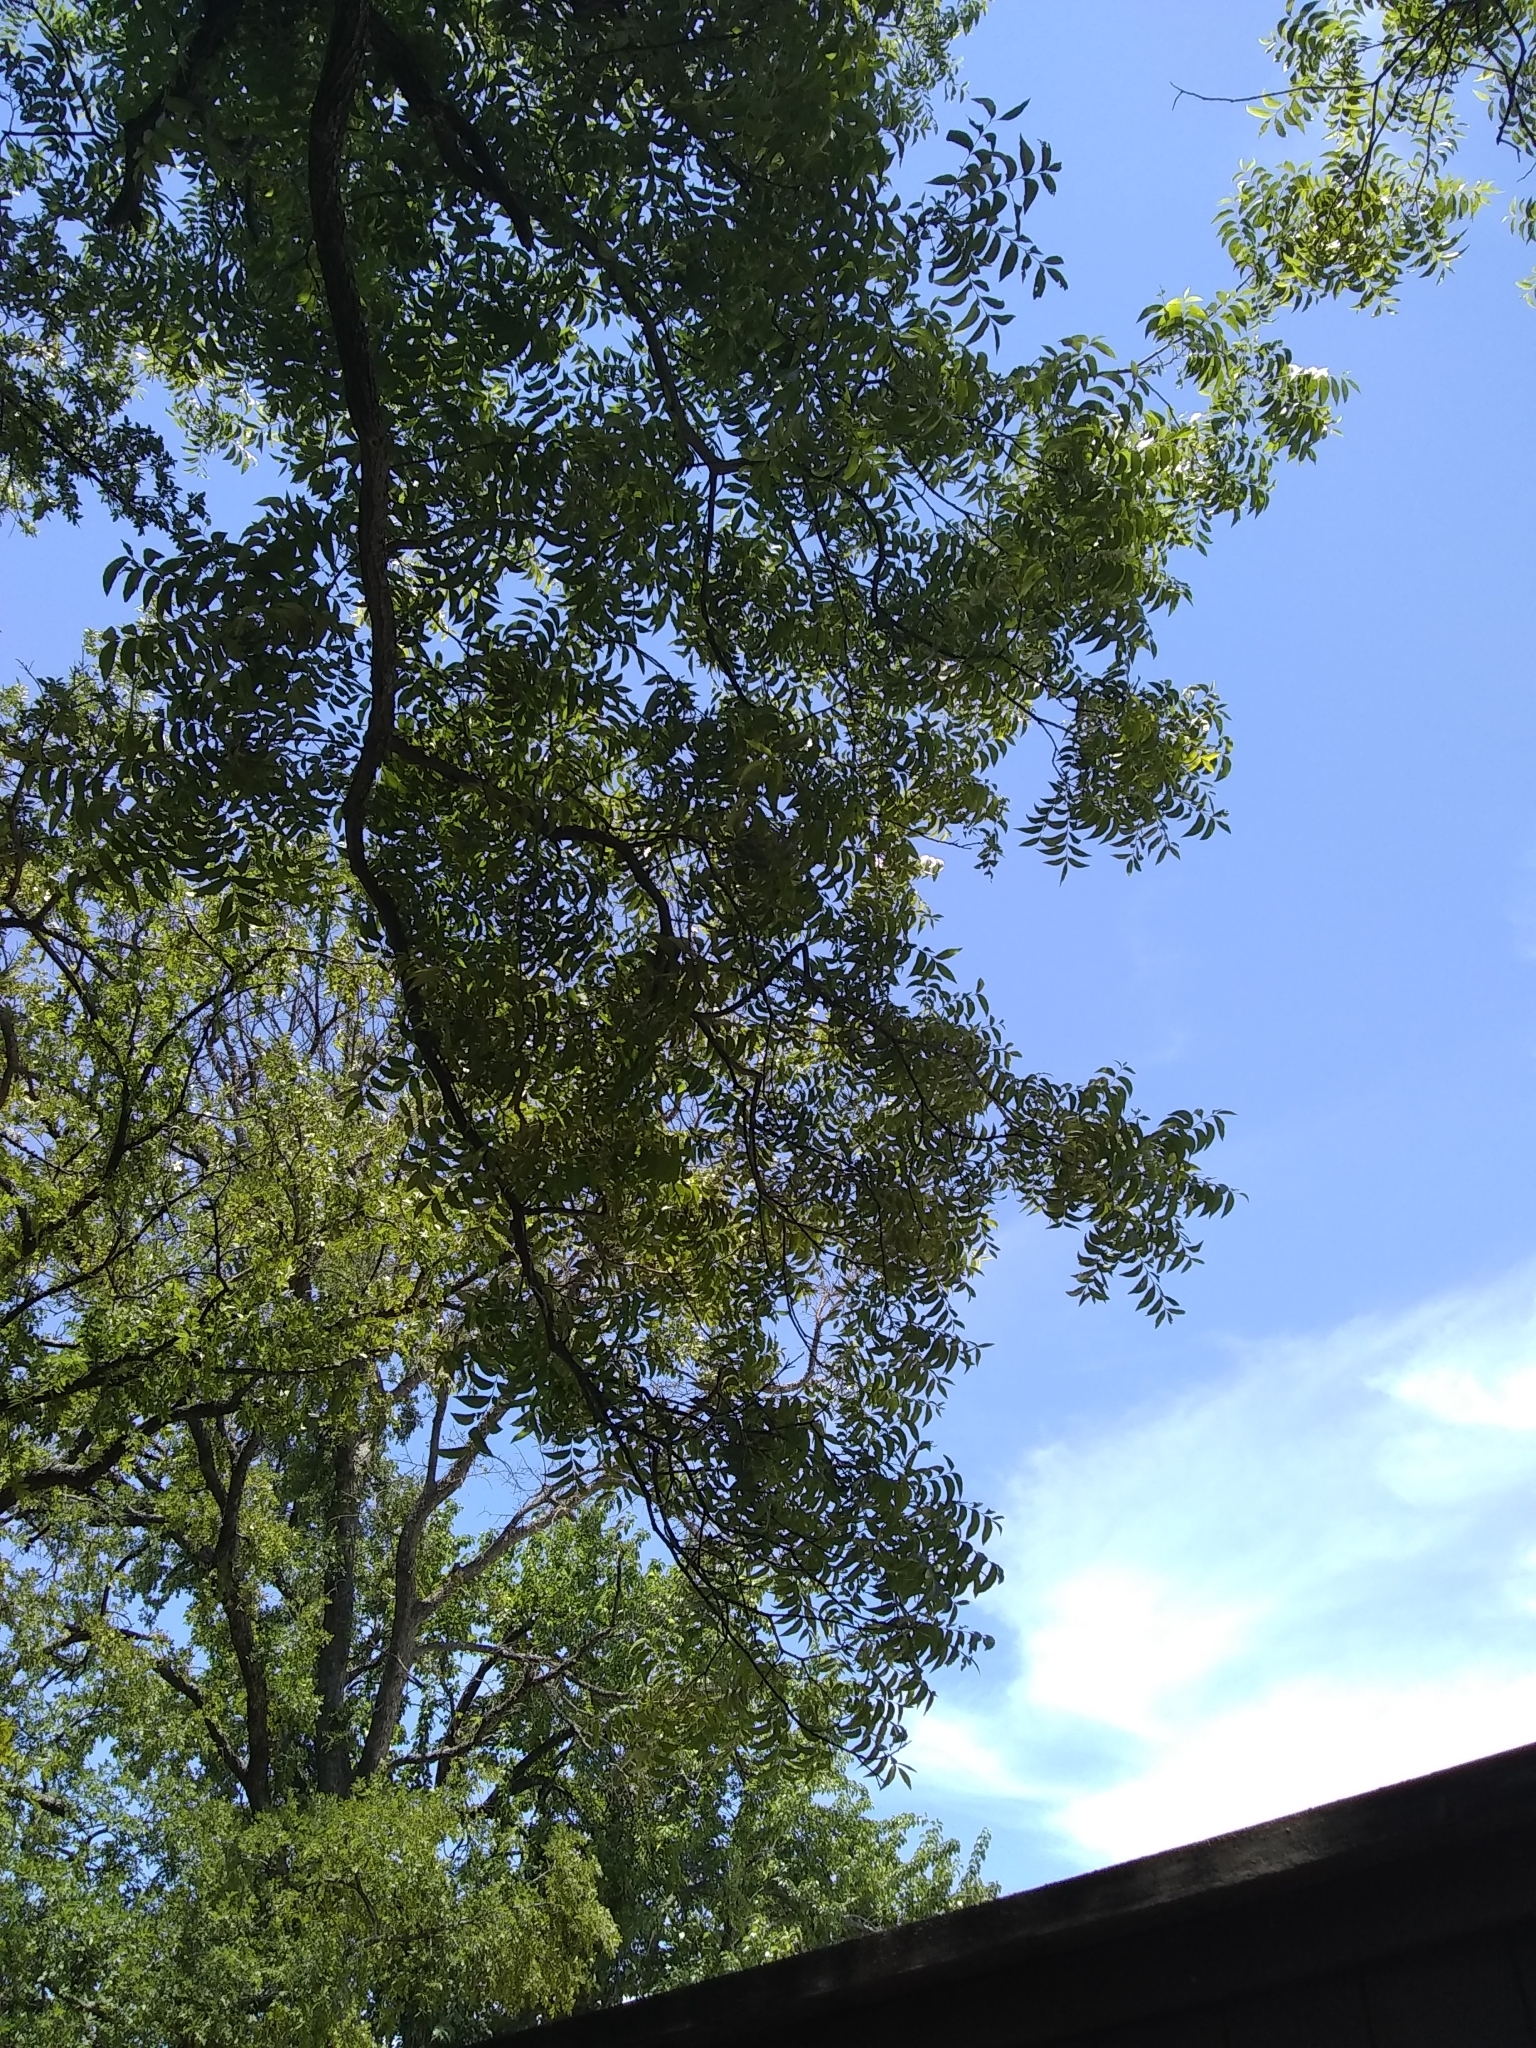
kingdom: Plantae
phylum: Tracheophyta
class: Magnoliopsida
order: Fagales
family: Juglandaceae
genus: Carya
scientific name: Carya illinoinensis
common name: Pecan
